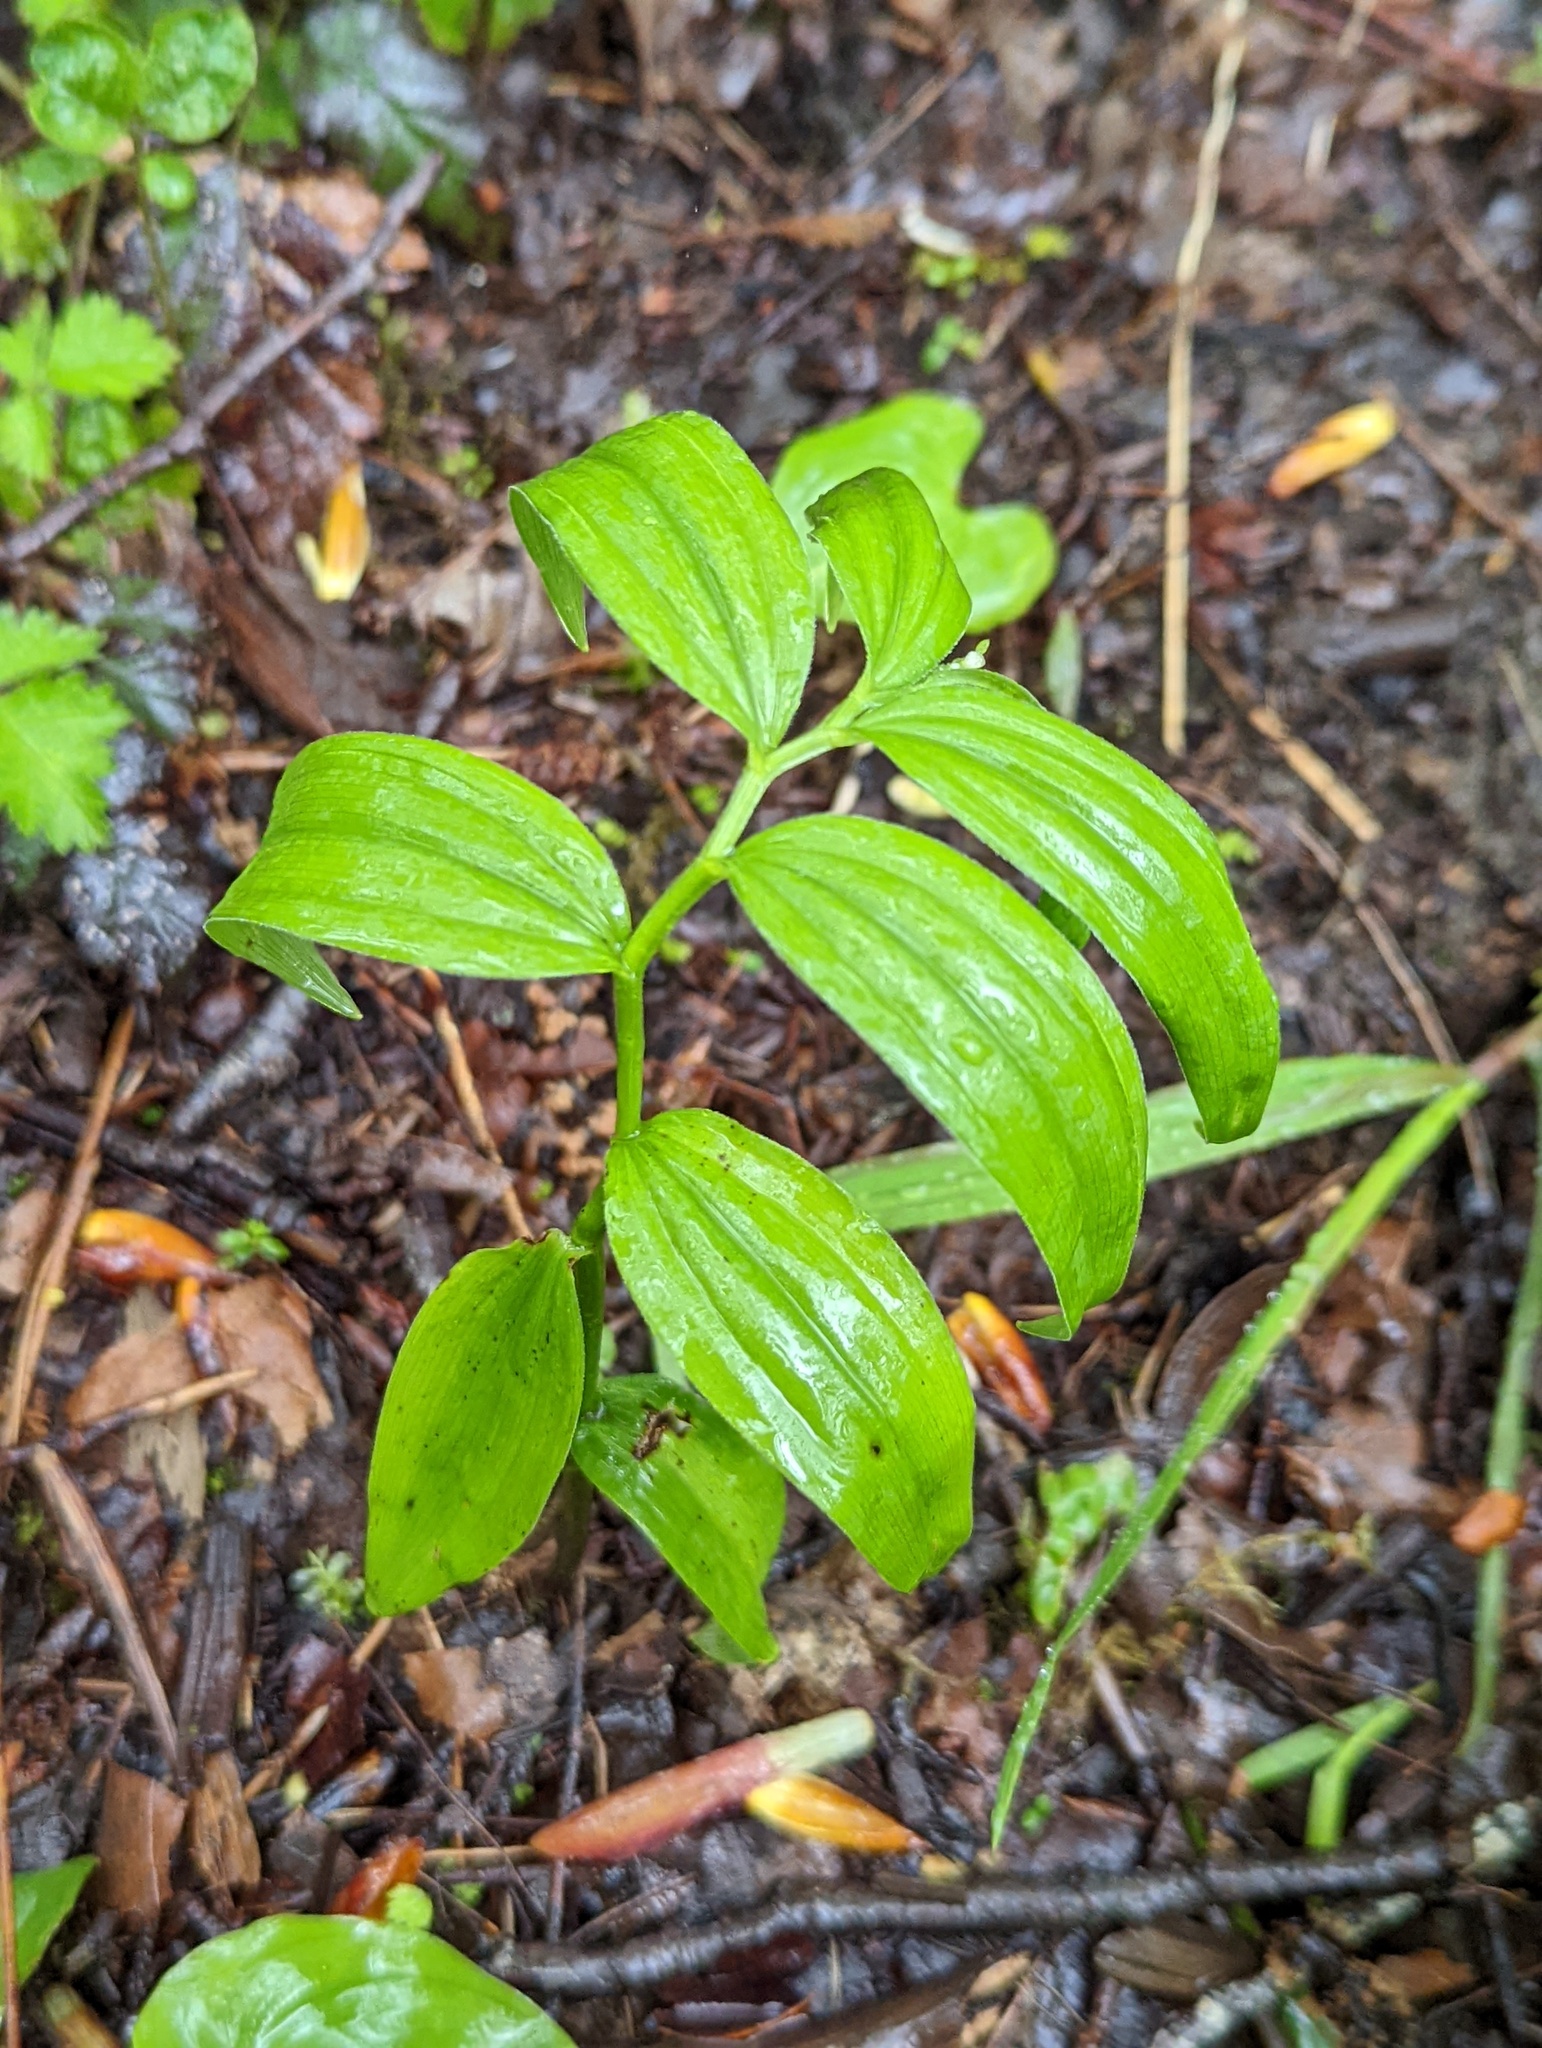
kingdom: Plantae
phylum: Tracheophyta
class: Liliopsida
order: Asparagales
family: Asparagaceae
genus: Maianthemum
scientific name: Maianthemum stellatum
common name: Little false solomon's seal
